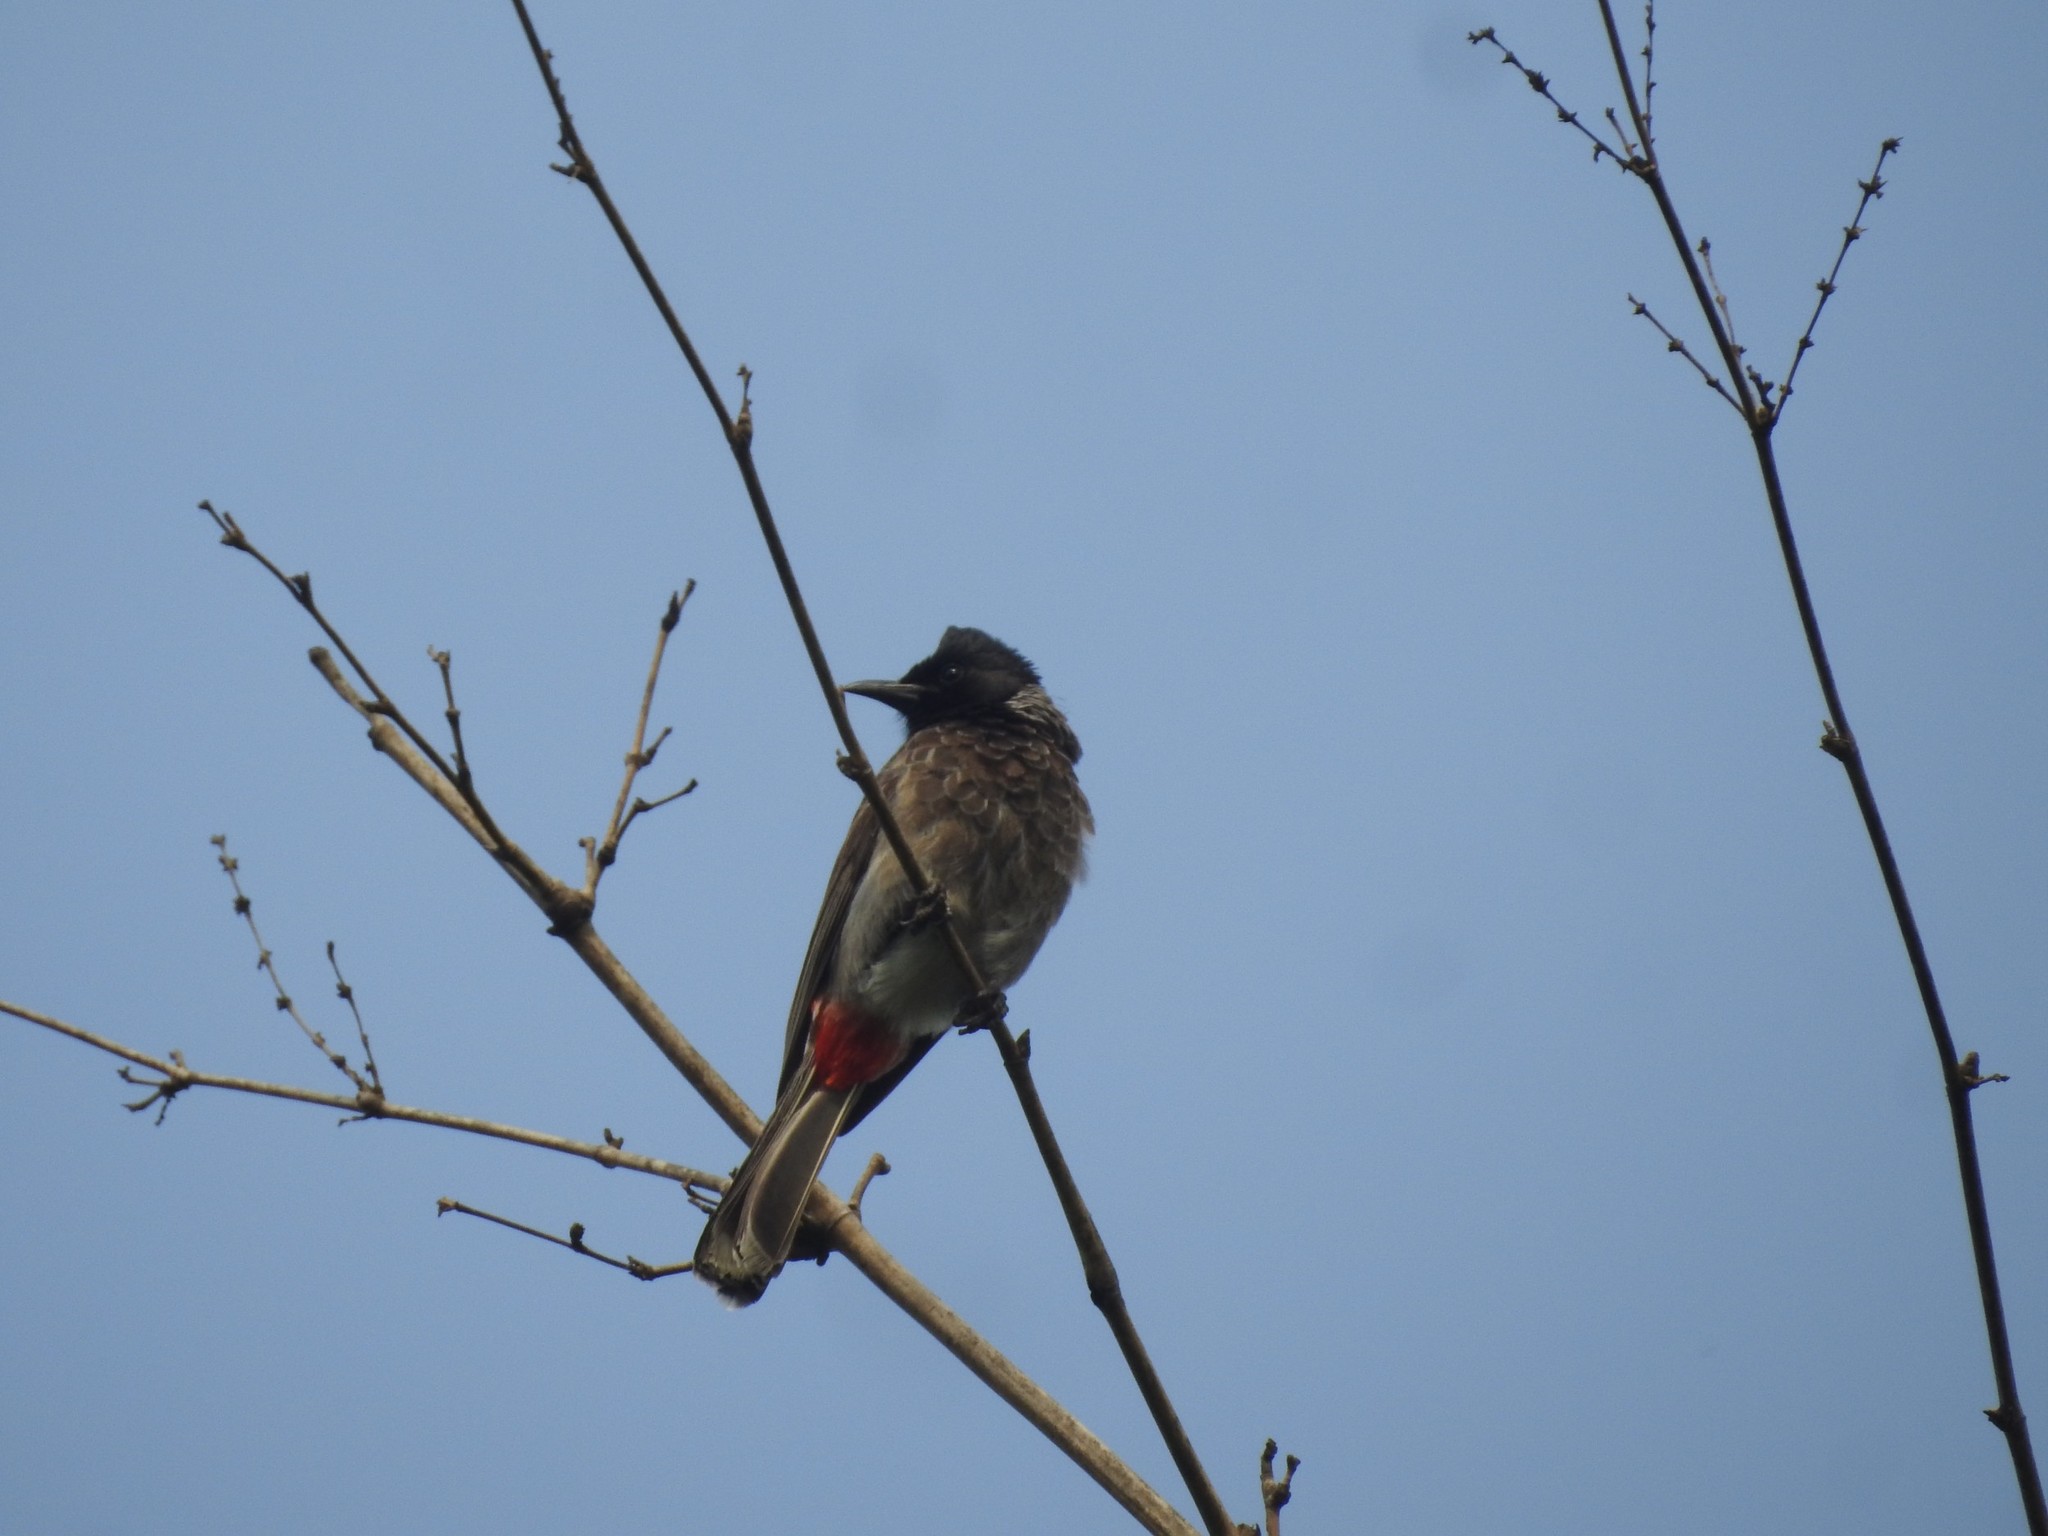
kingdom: Animalia
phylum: Chordata
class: Aves
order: Passeriformes
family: Pycnonotidae
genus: Pycnonotus
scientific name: Pycnonotus cafer
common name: Red-vented bulbul
